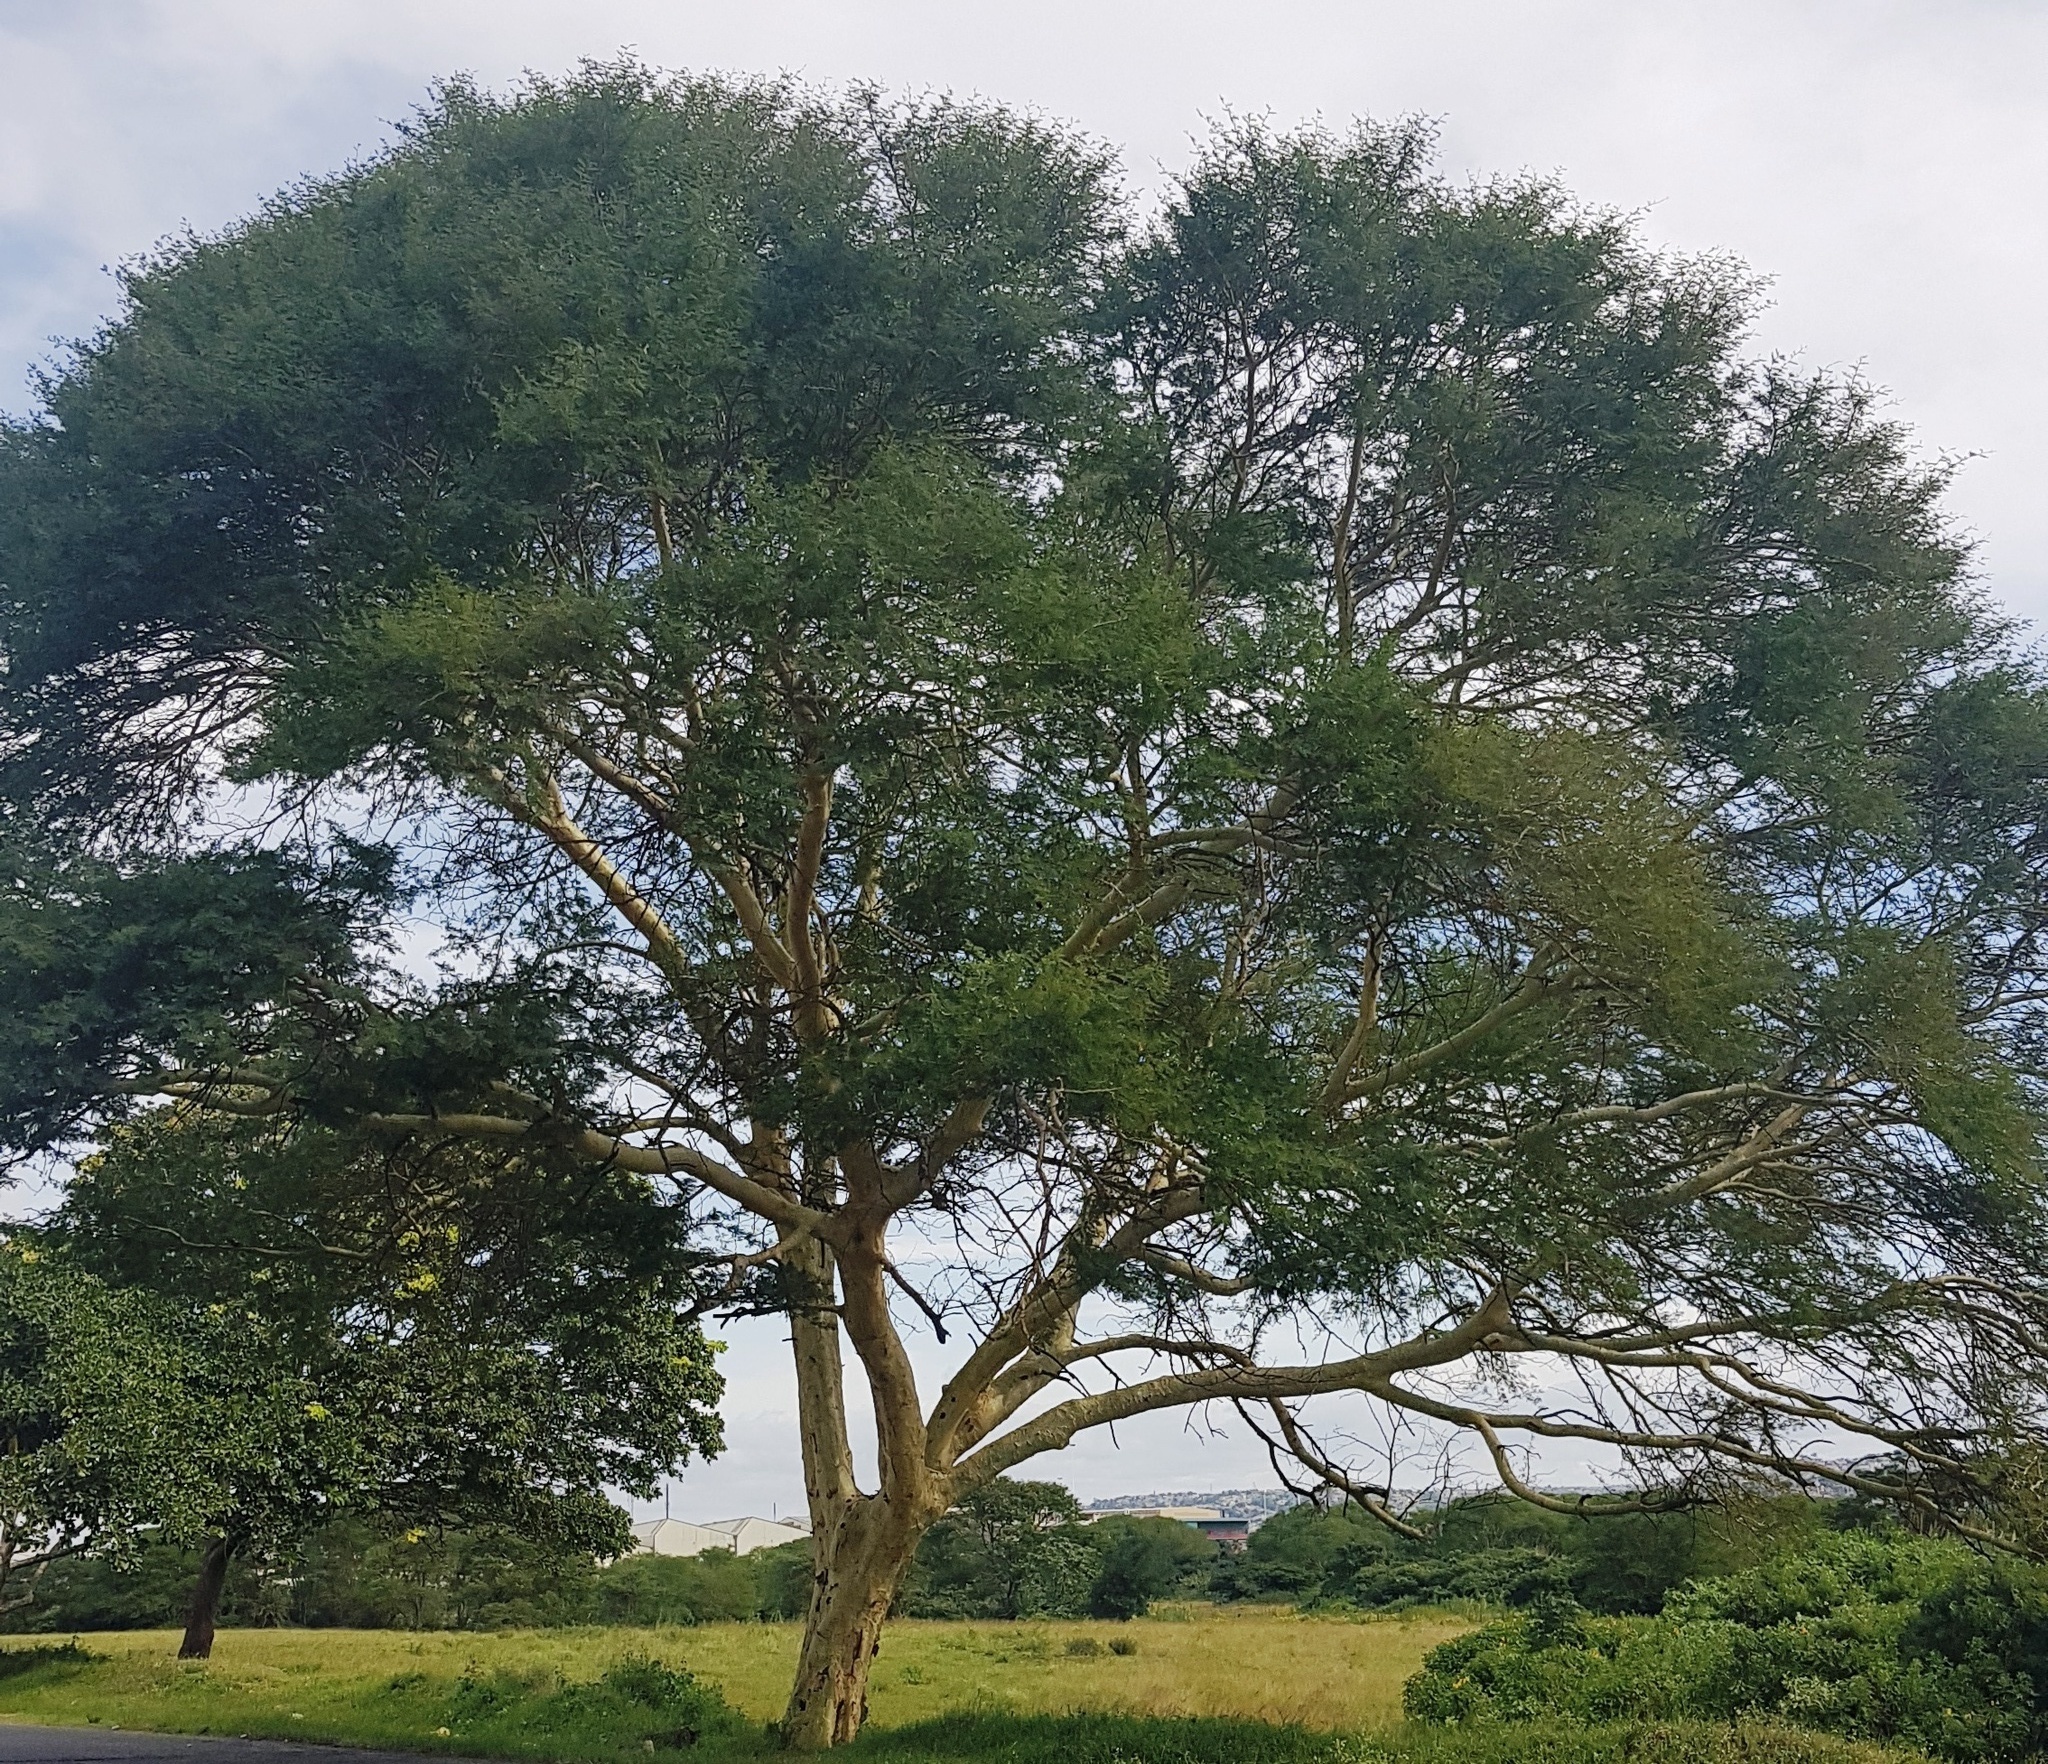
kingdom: Plantae
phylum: Tracheophyta
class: Magnoliopsida
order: Fabales
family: Fabaceae
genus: Vachellia
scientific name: Vachellia xanthophloea
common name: Fever tree
